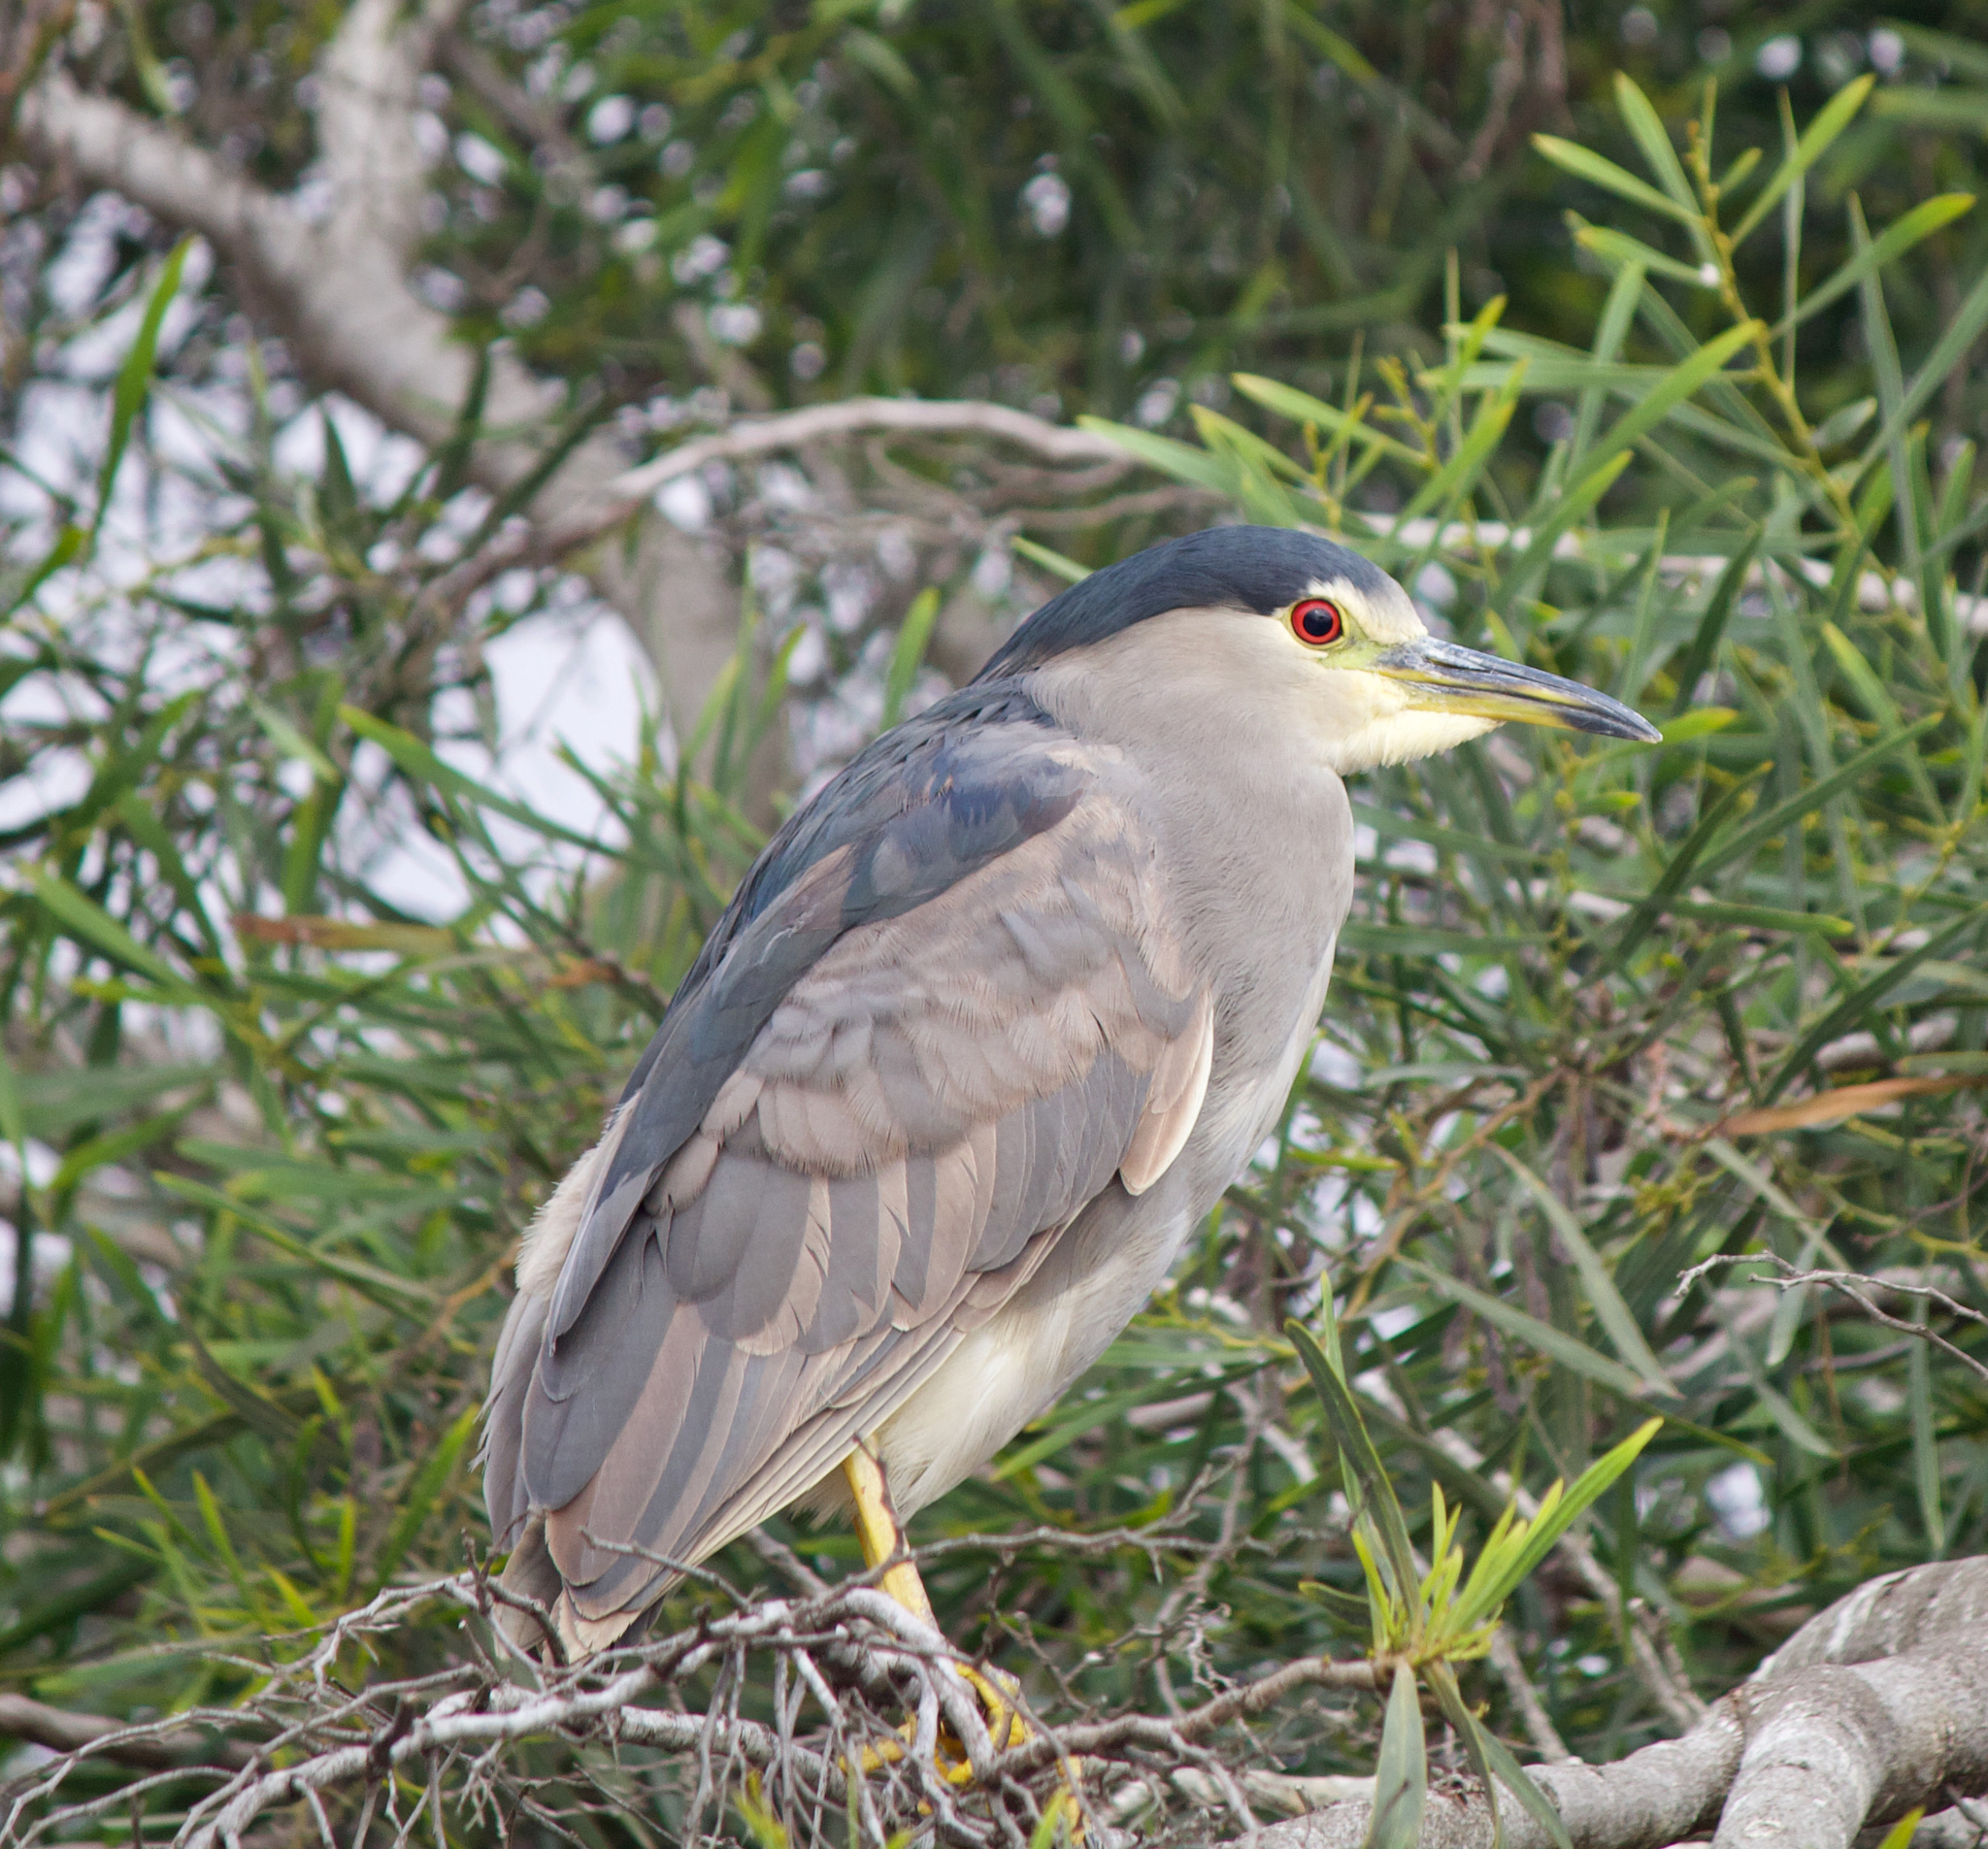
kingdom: Animalia
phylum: Chordata
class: Aves
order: Pelecaniformes
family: Ardeidae
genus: Nycticorax
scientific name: Nycticorax nycticorax
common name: Black-crowned night heron
